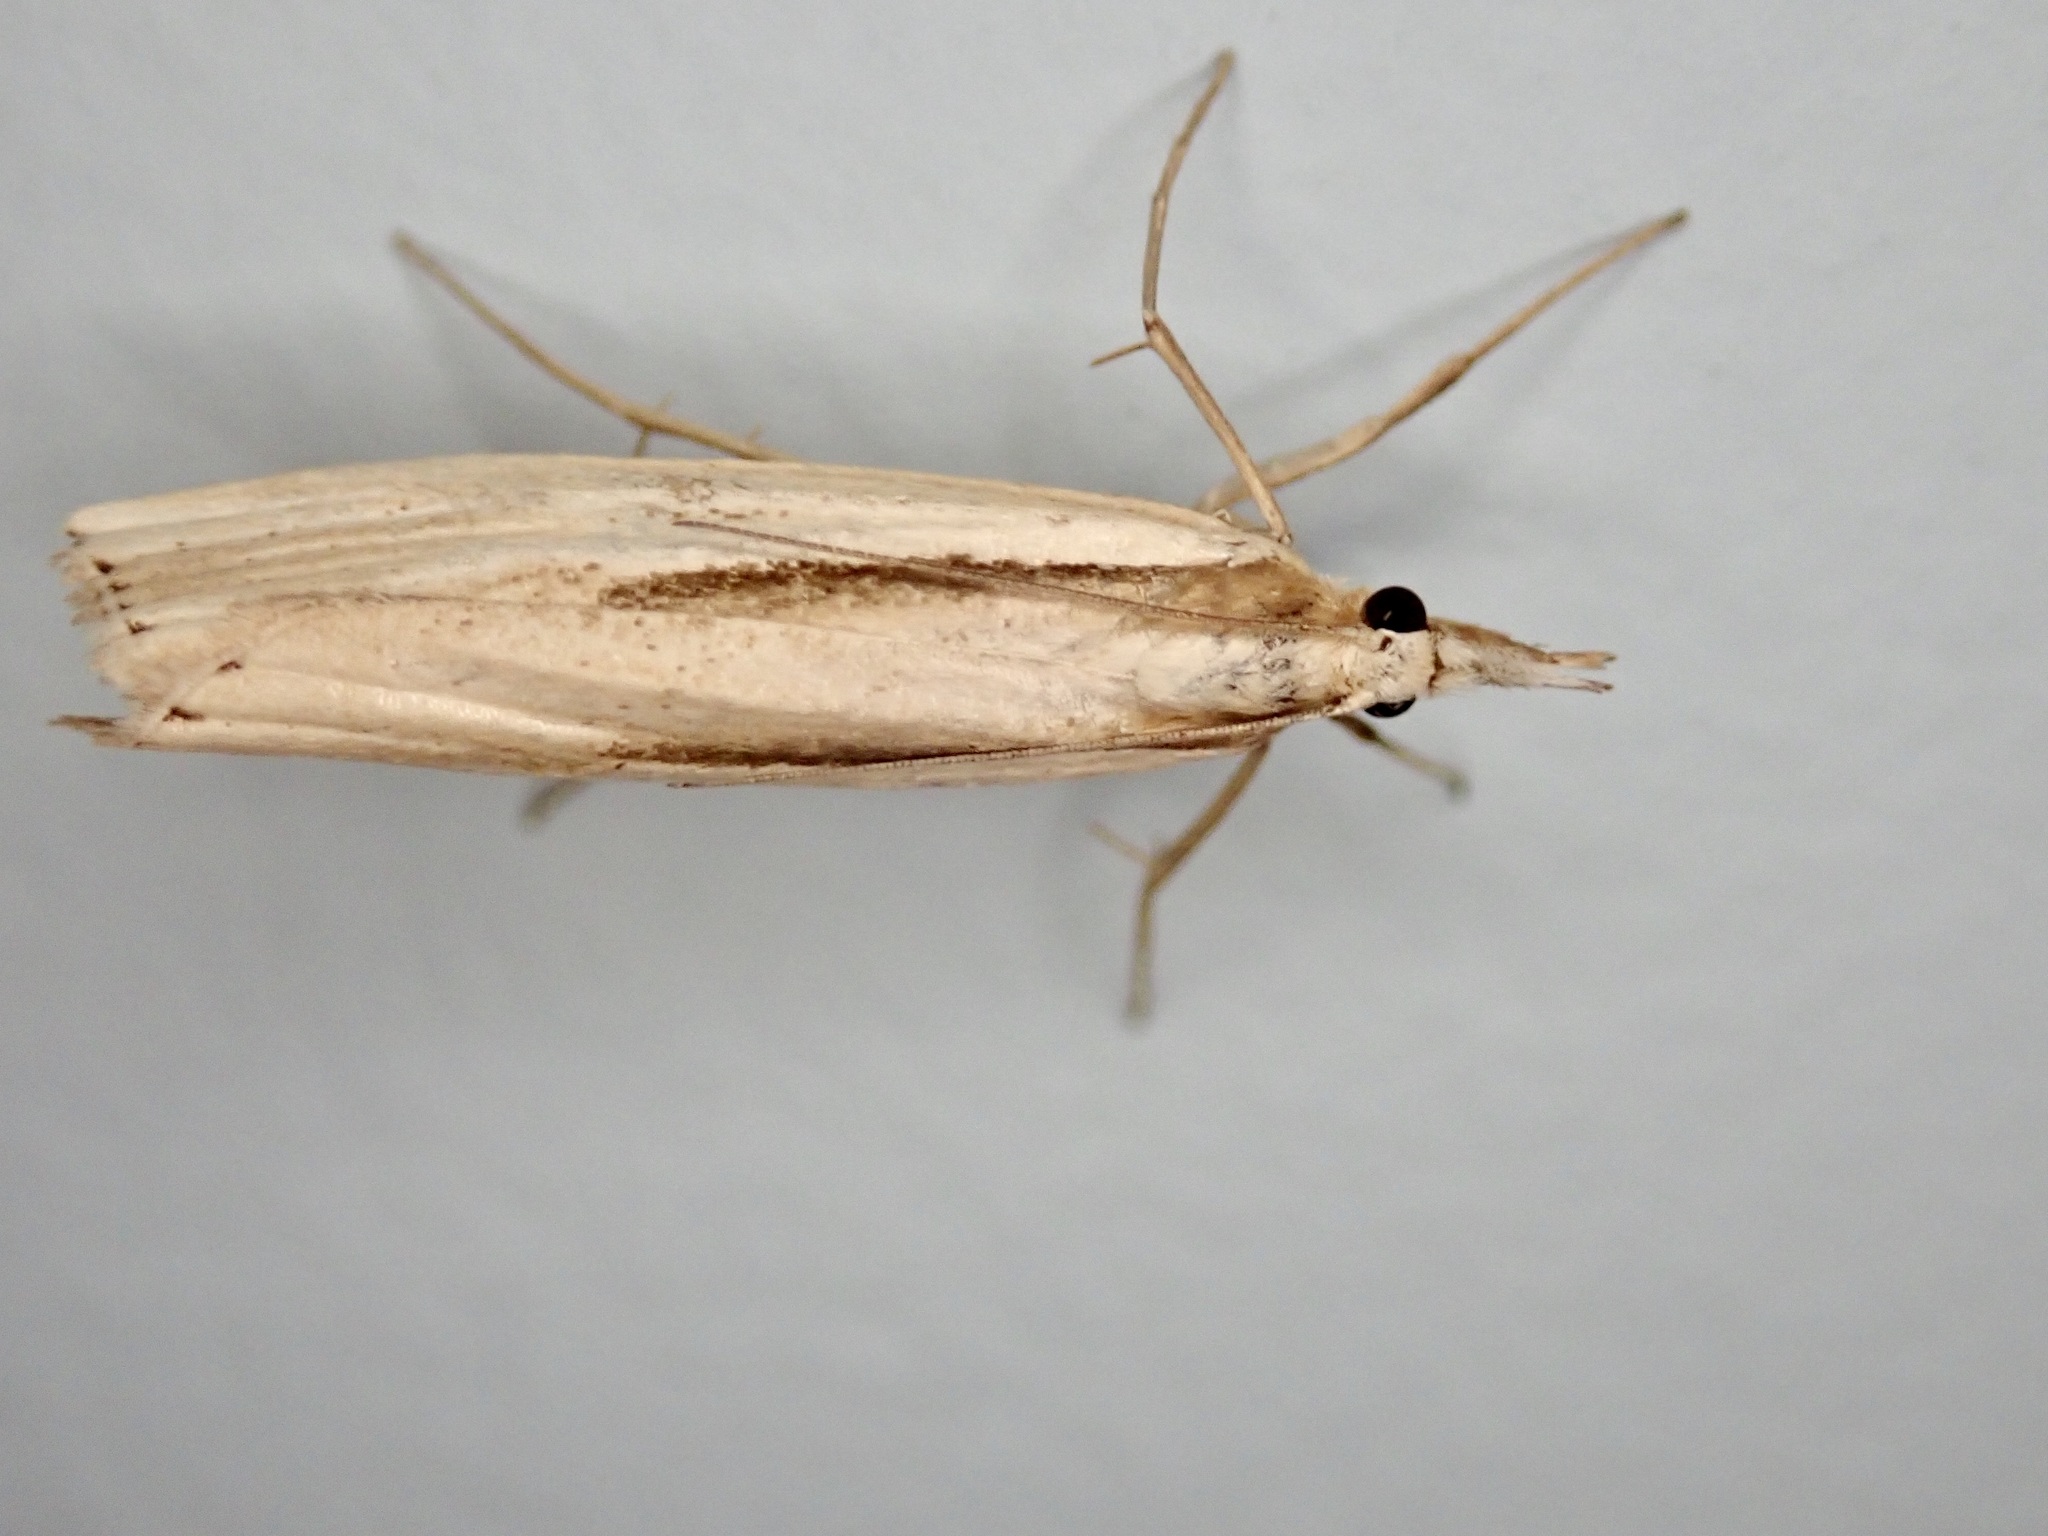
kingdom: Animalia
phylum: Arthropoda
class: Insecta
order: Lepidoptera
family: Crambidae
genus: Orocrambus
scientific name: Orocrambus ramosellus
